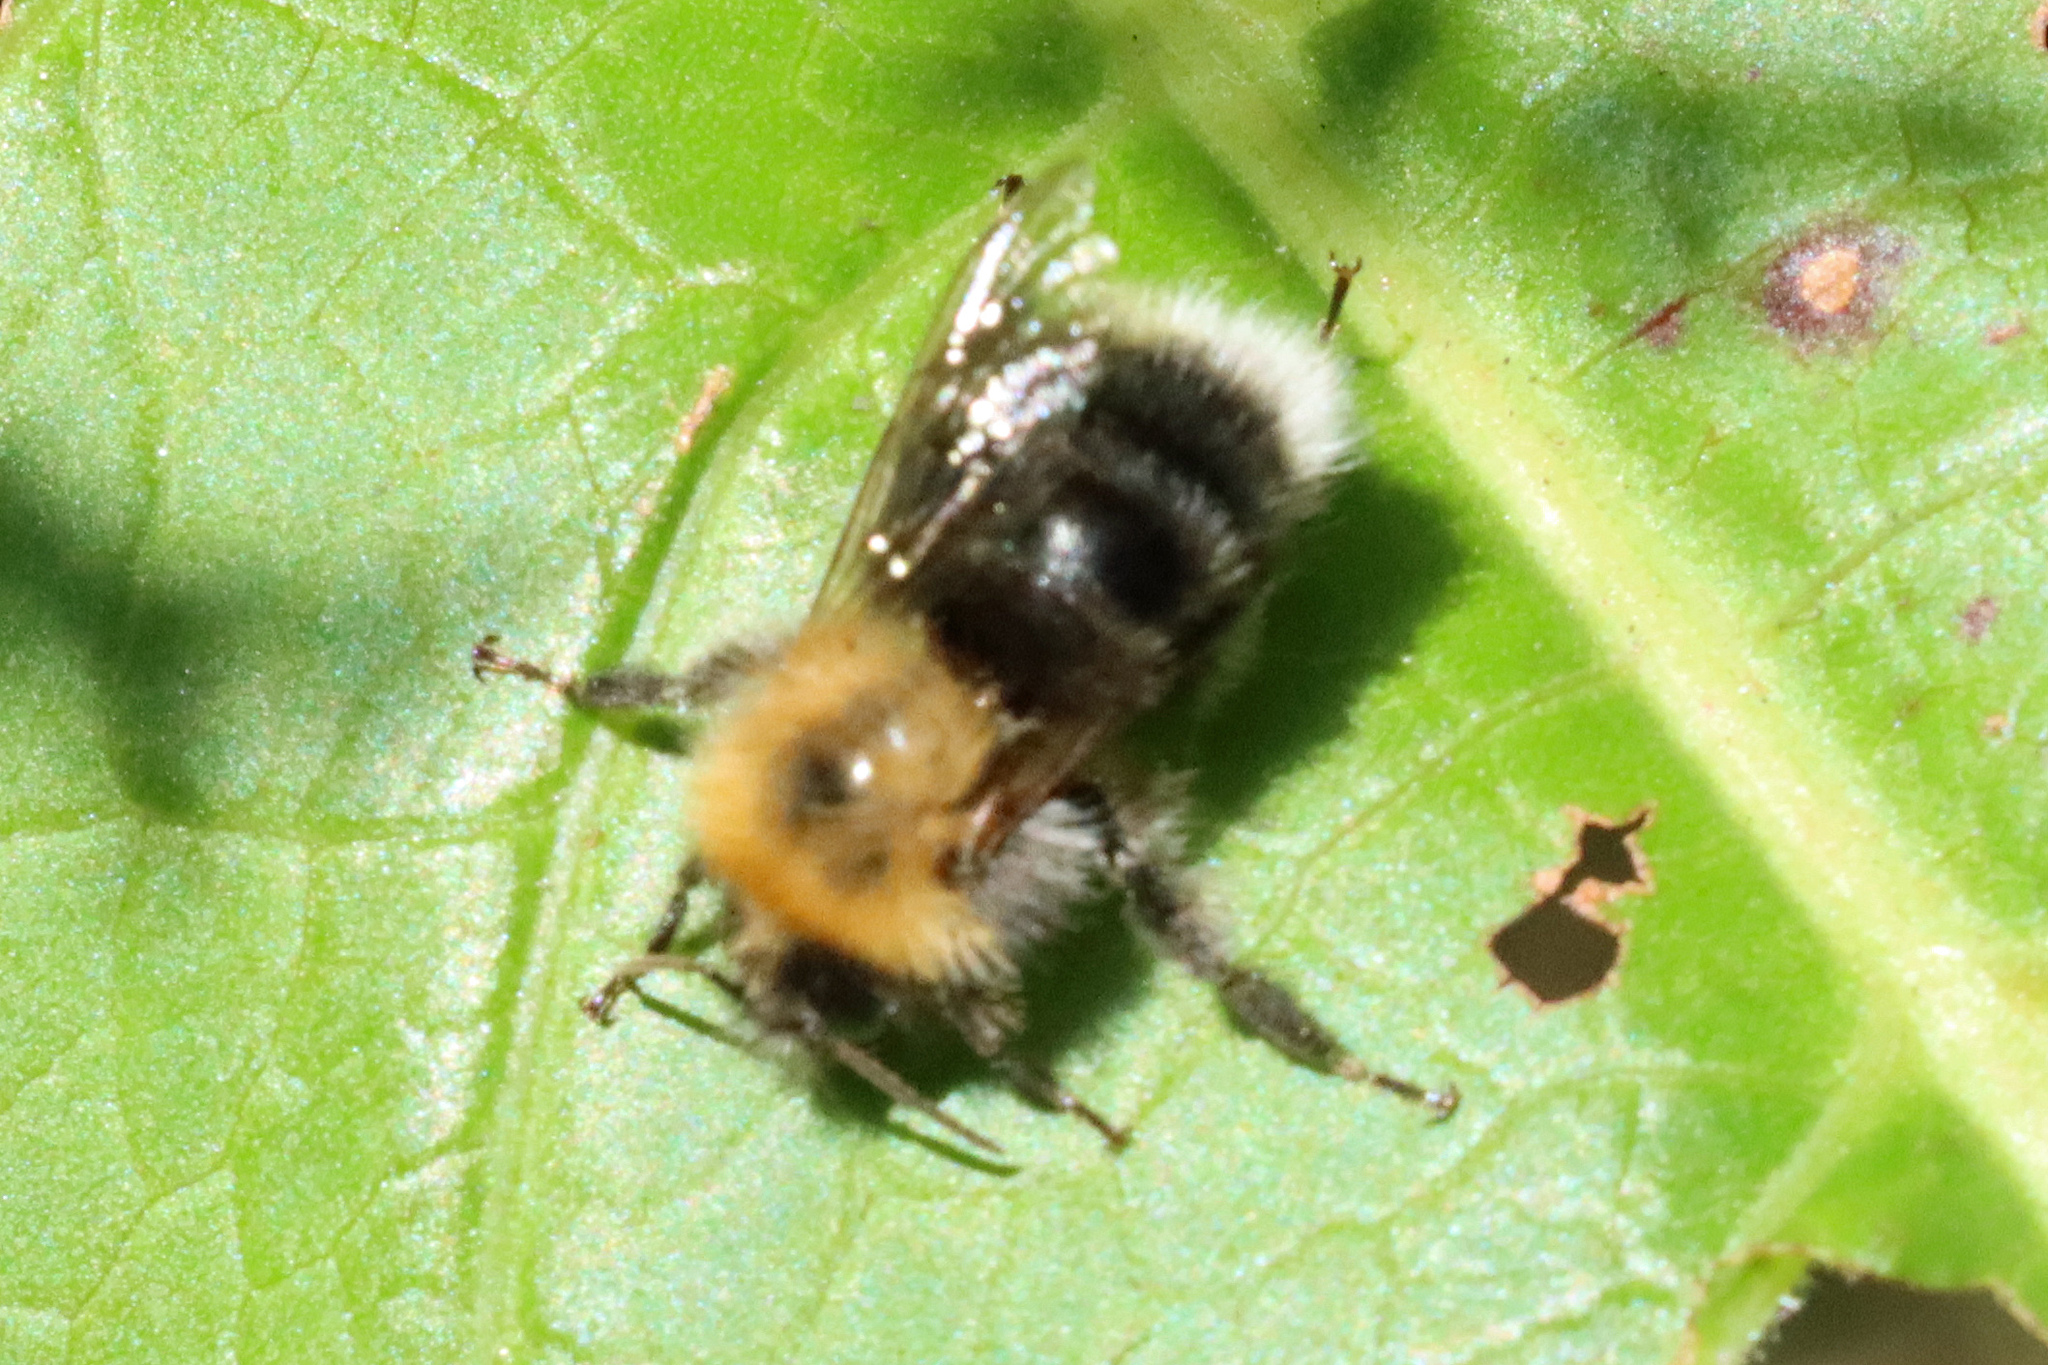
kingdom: Animalia
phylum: Arthropoda
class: Insecta
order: Hymenoptera
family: Apidae
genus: Bombus
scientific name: Bombus hypnorum
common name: New garden bumblebee
